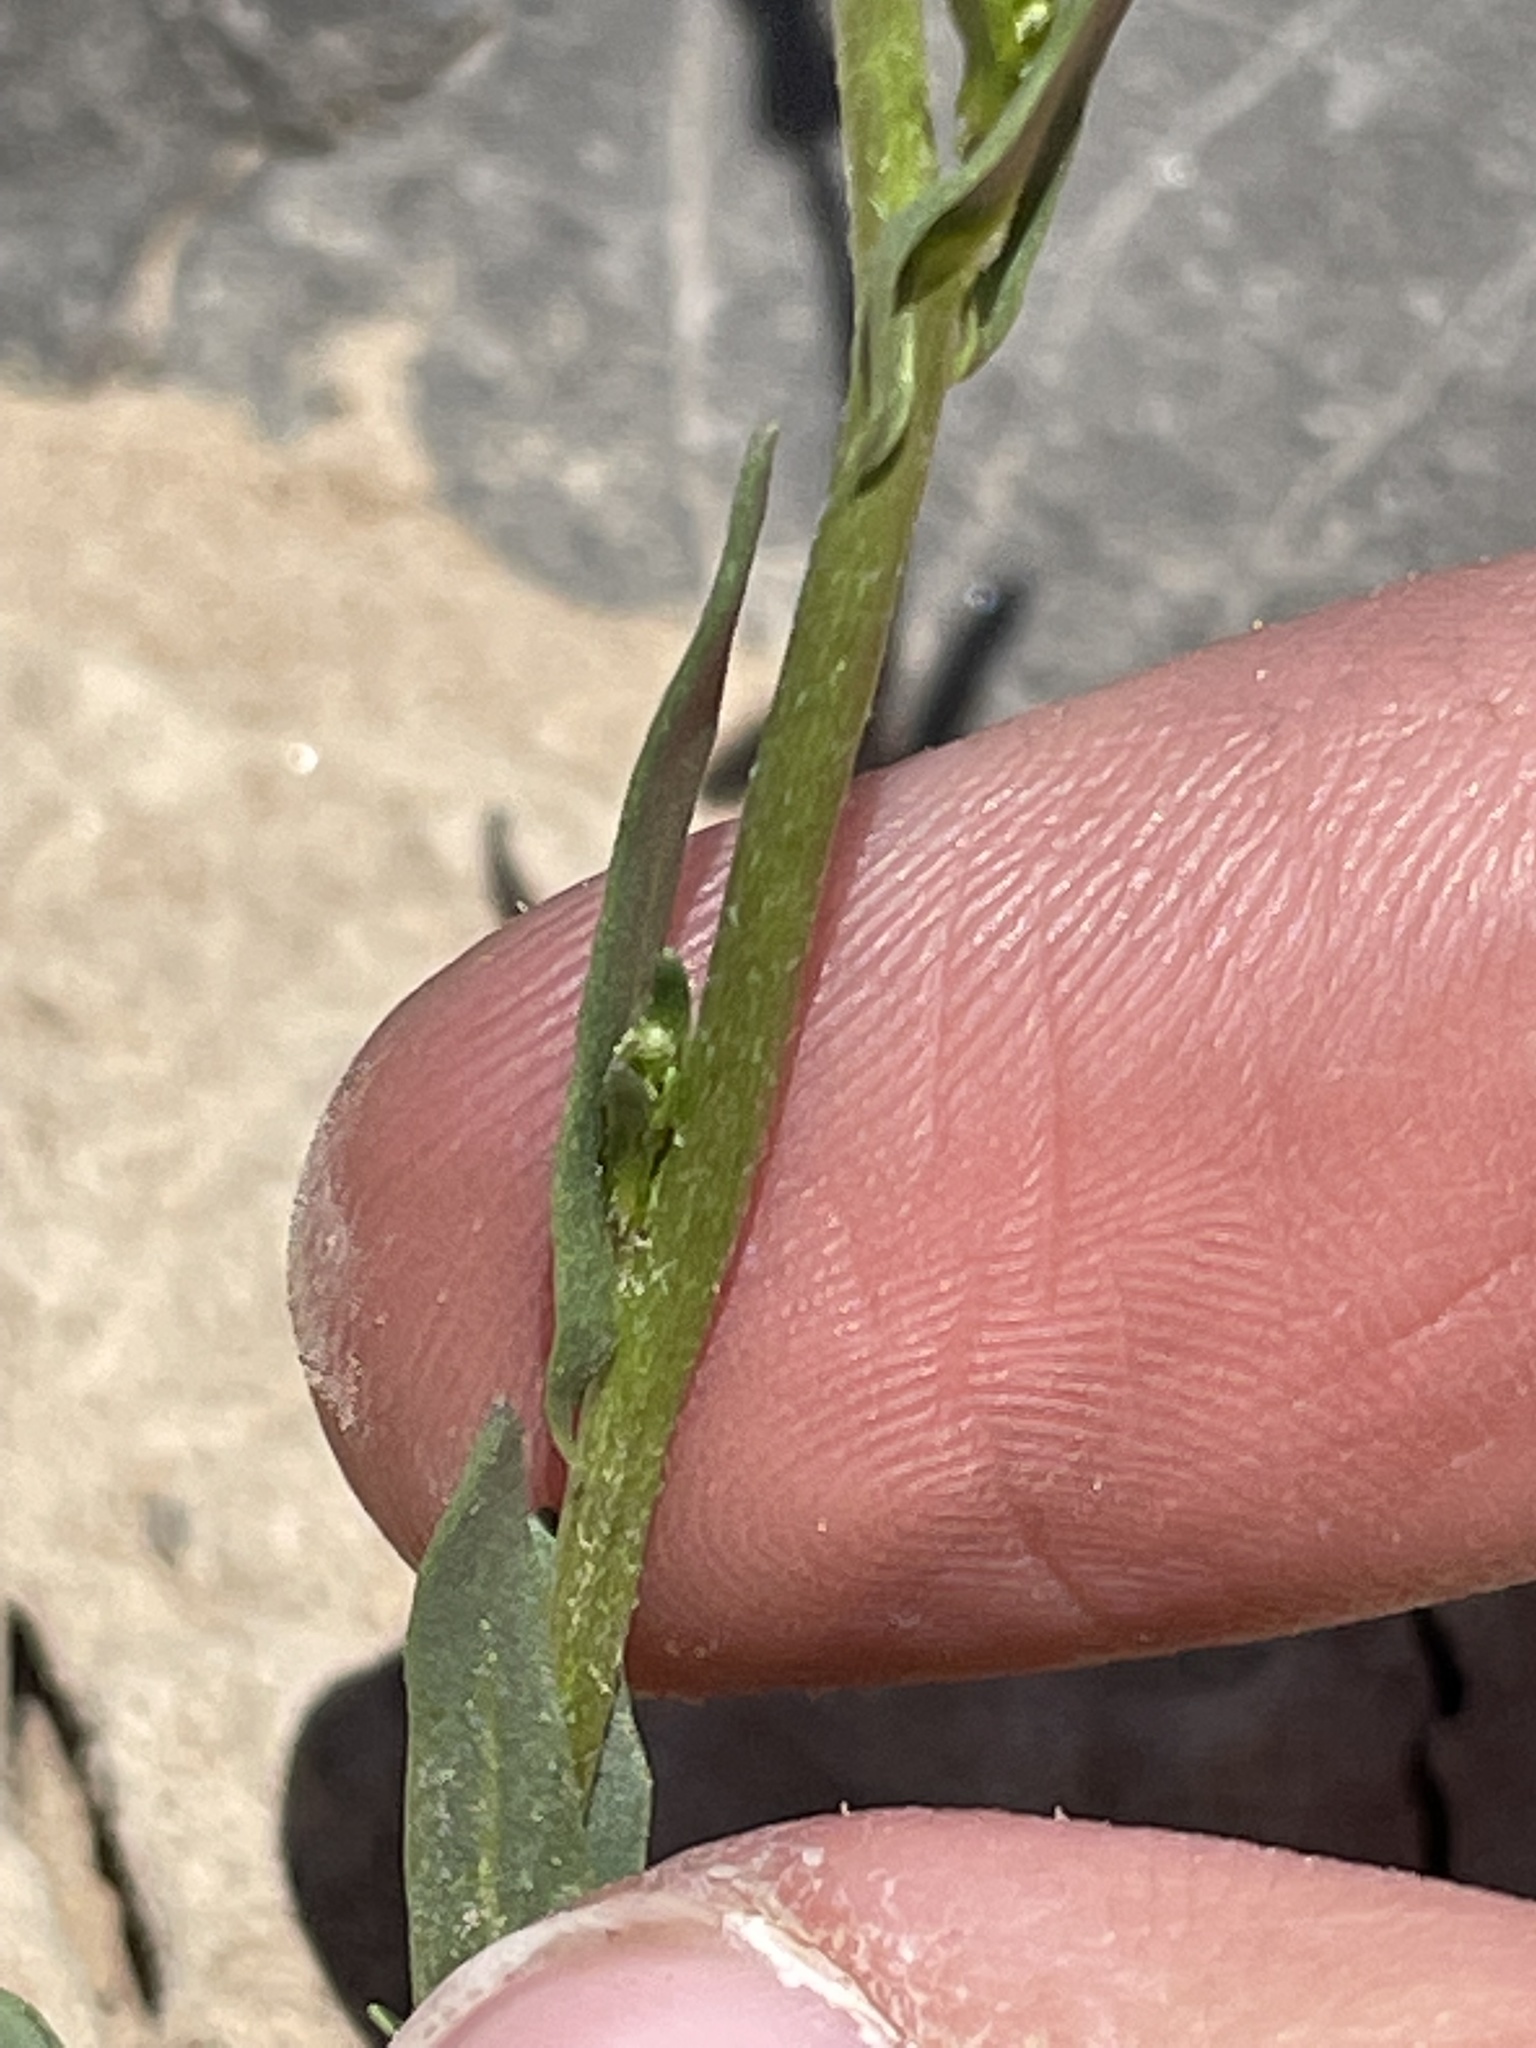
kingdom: Plantae
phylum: Tracheophyta
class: Magnoliopsida
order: Brassicales
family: Brassicaceae
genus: Streptanthus
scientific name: Streptanthus longirostris
